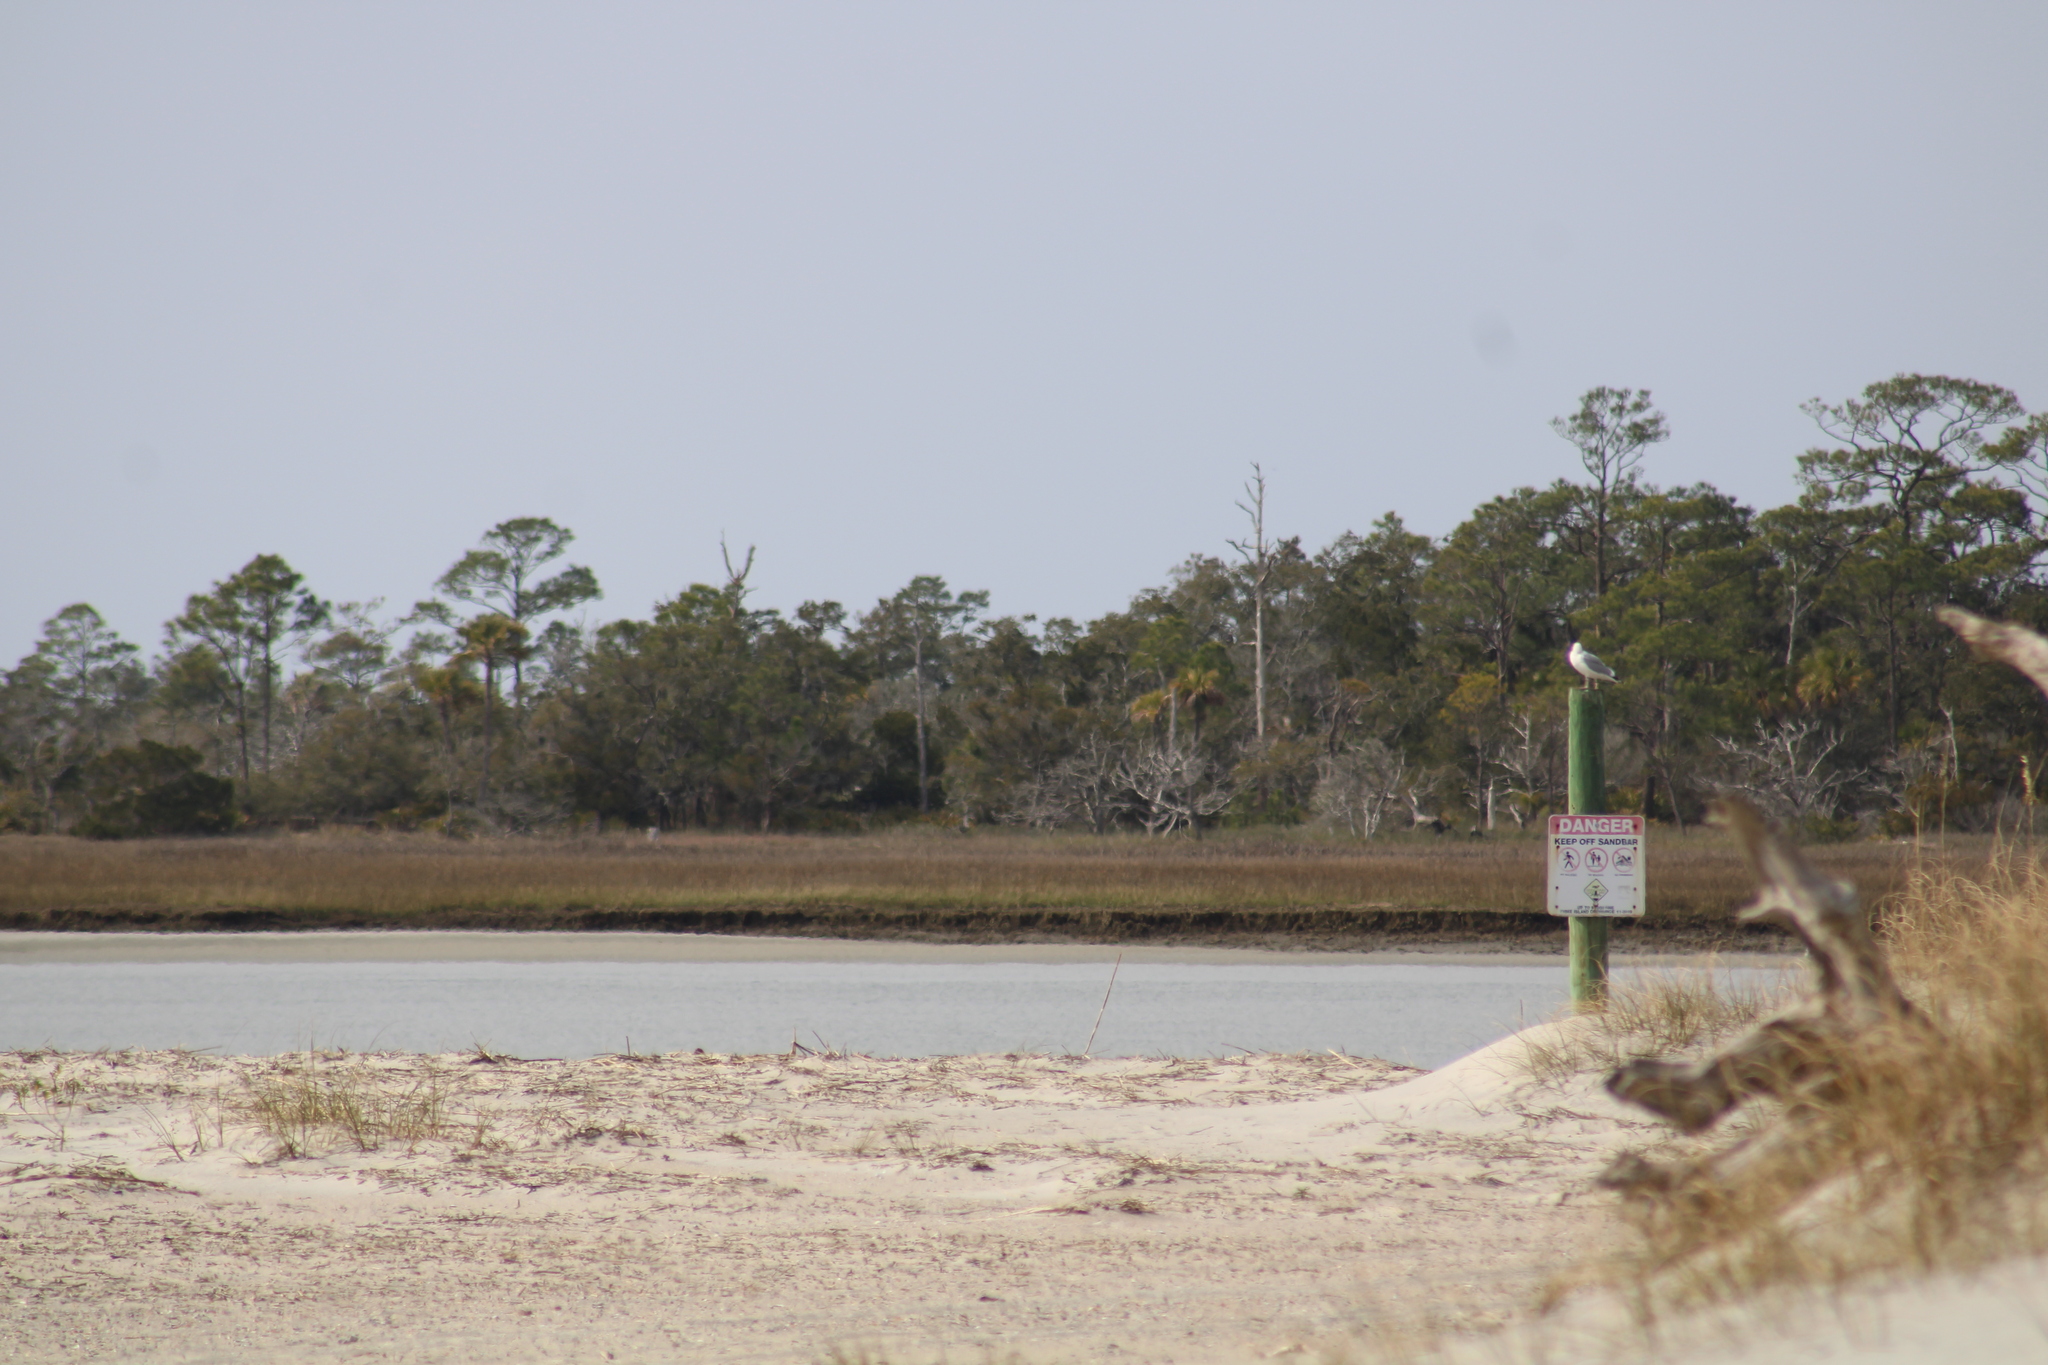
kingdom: Animalia
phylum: Chordata
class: Aves
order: Charadriiformes
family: Laridae
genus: Larus
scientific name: Larus argentatus
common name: Herring gull
